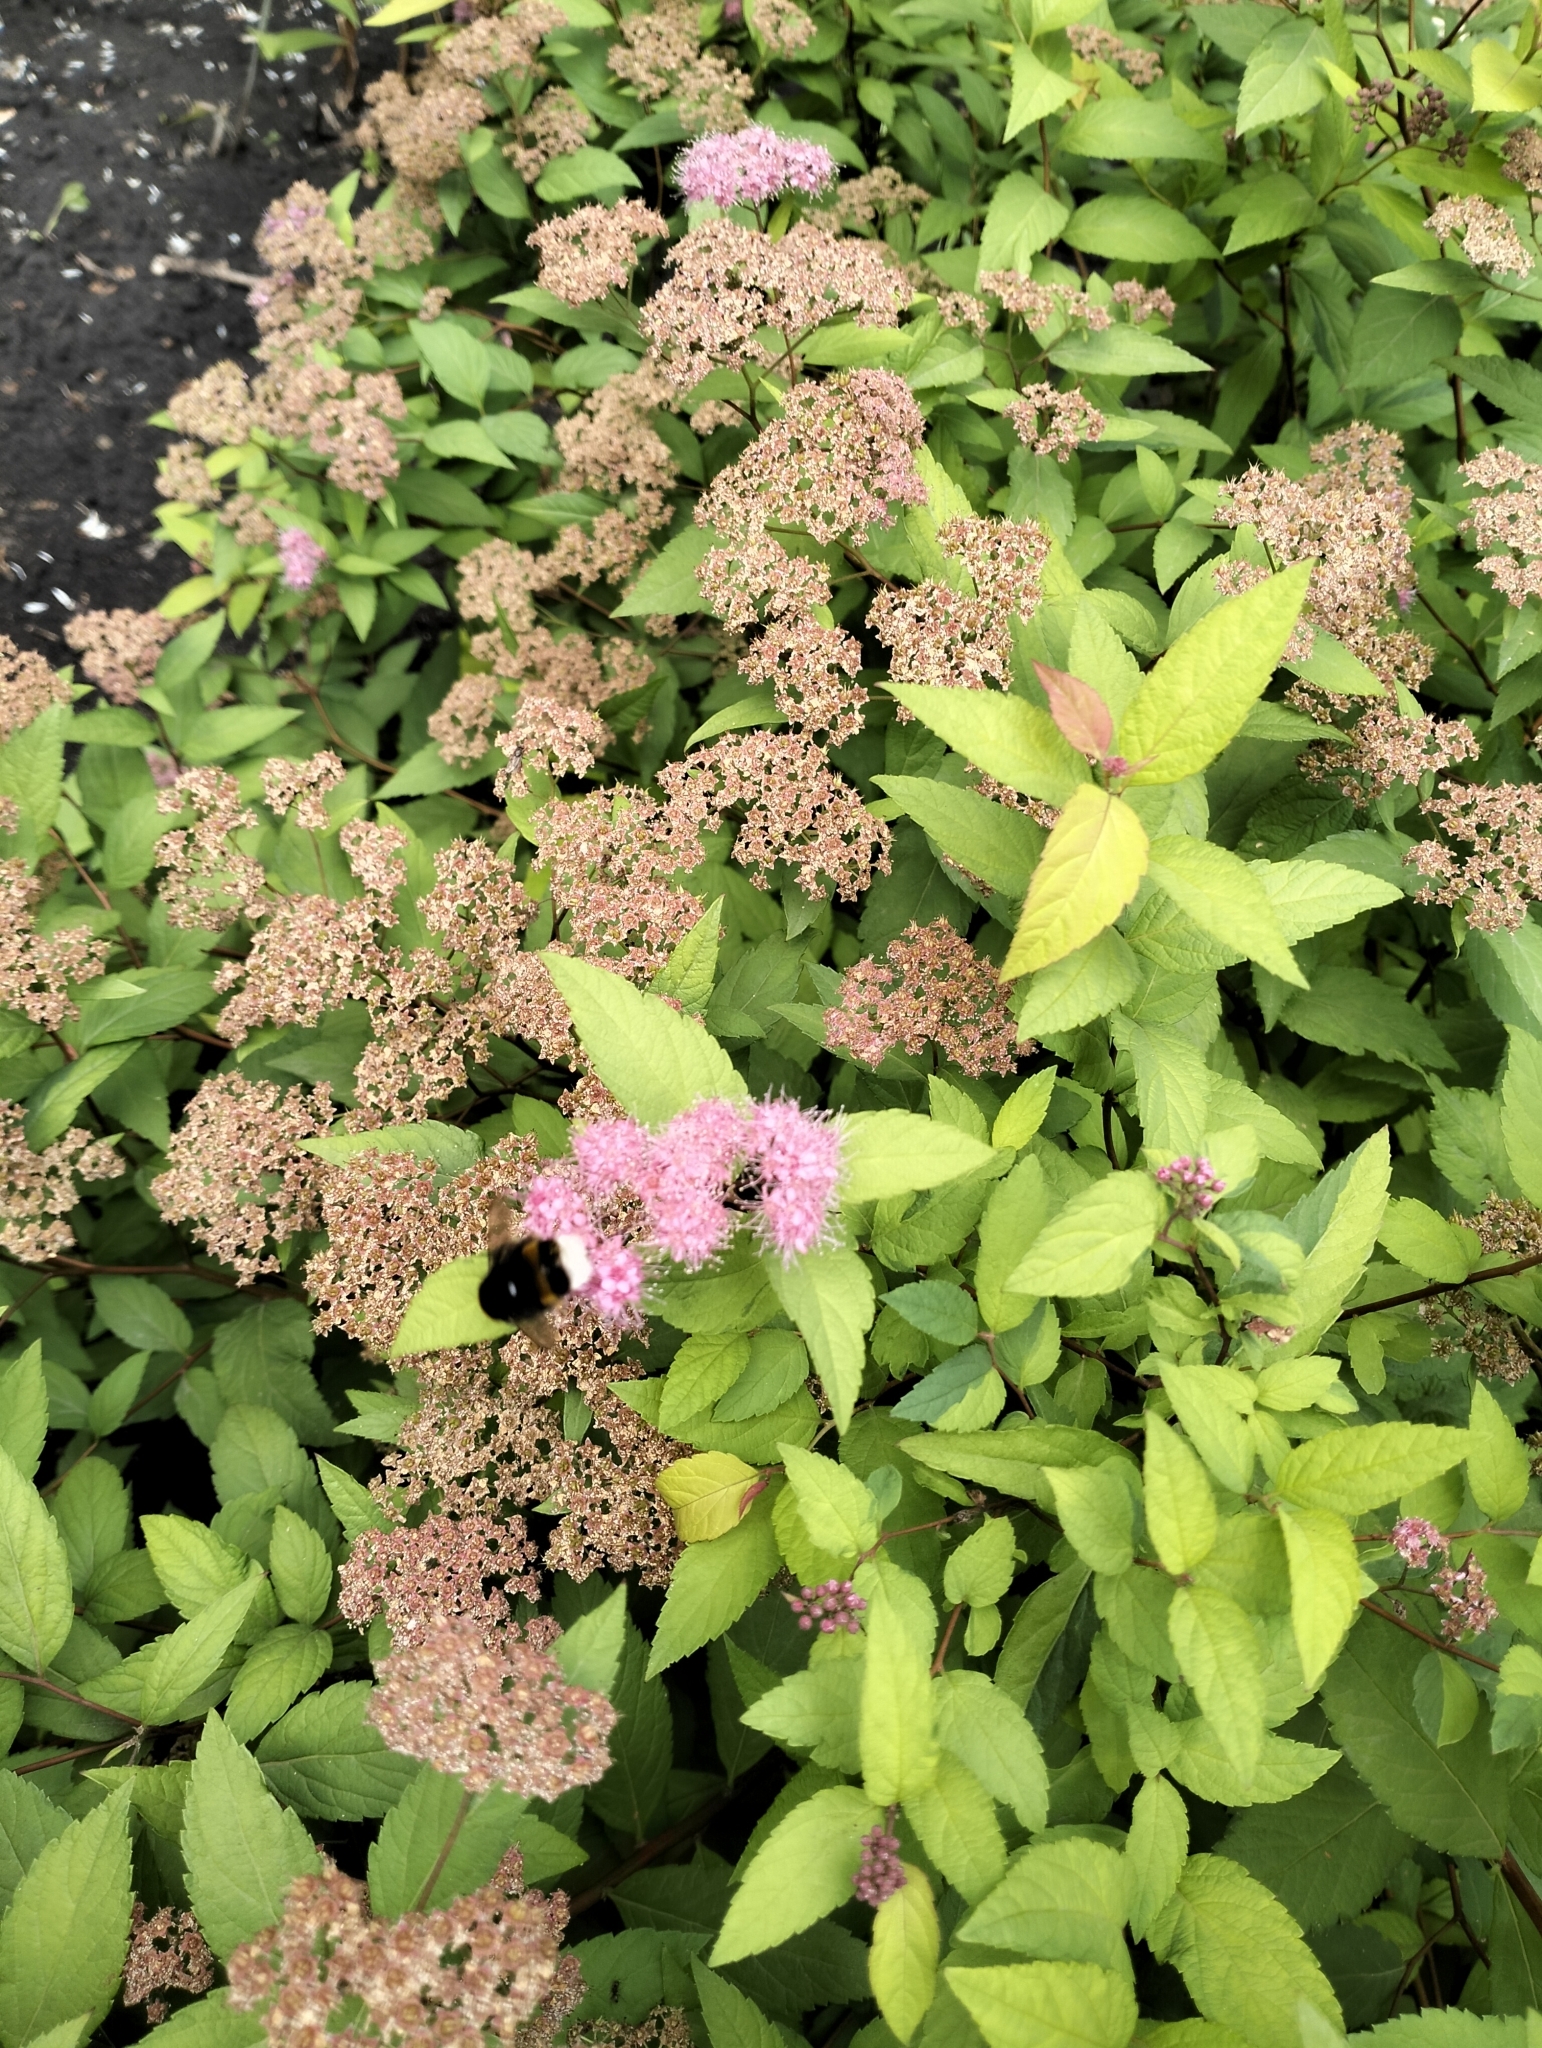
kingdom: Animalia
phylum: Arthropoda
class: Insecta
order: Hymenoptera
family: Apidae
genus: Bombus
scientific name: Bombus
